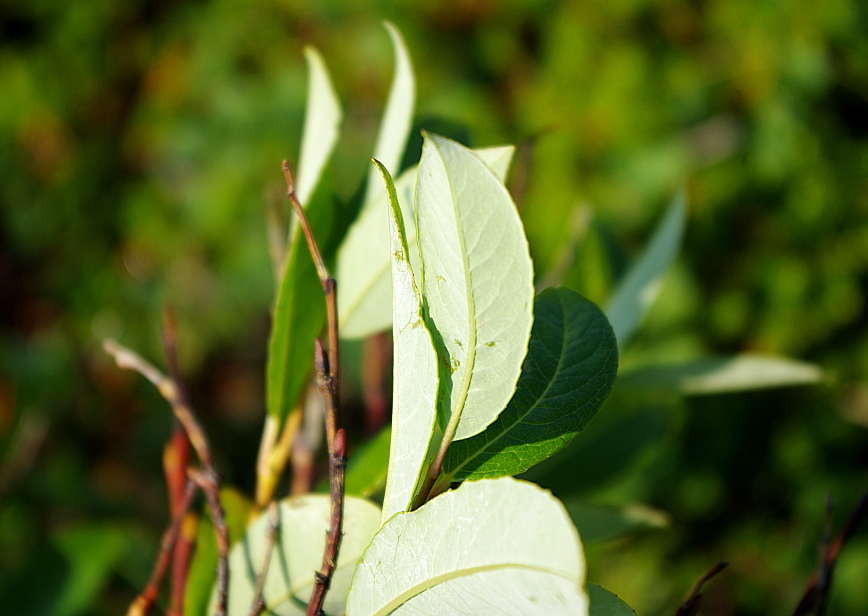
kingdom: Plantae
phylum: Tracheophyta
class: Magnoliopsida
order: Malpighiales
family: Salicaceae
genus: Salix
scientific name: Salix phylicifolia
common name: Tea-leaved willow
